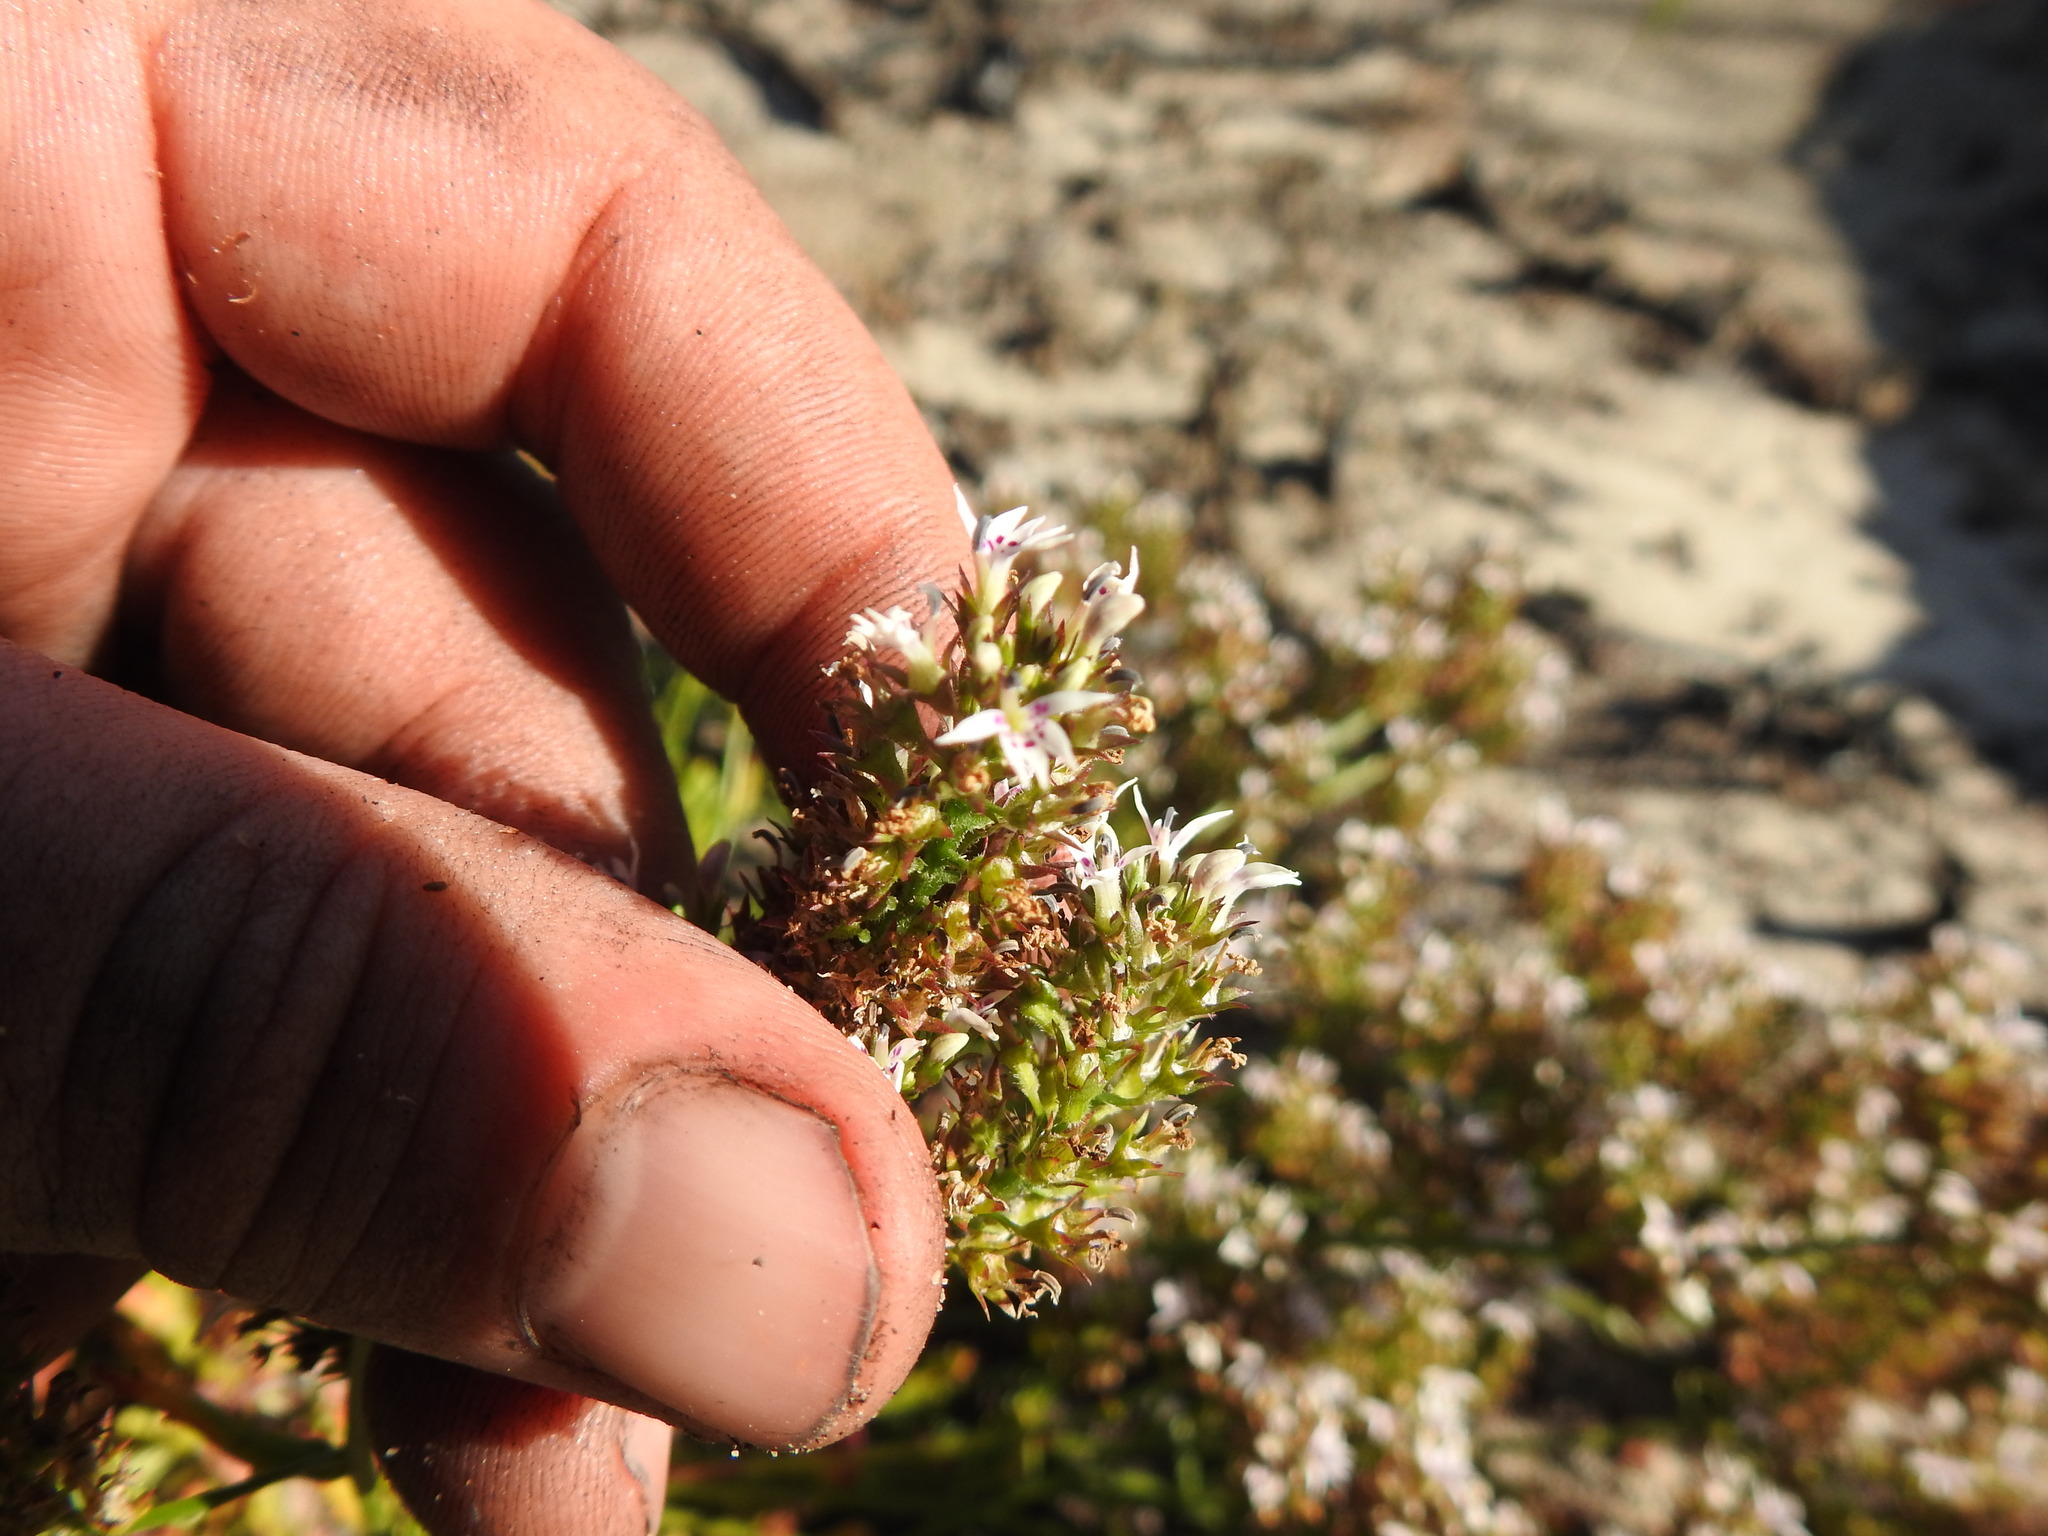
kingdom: Plantae
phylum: Tracheophyta
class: Magnoliopsida
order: Asterales
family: Campanulaceae
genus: Lobelia
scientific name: Lobelia jasionoides
